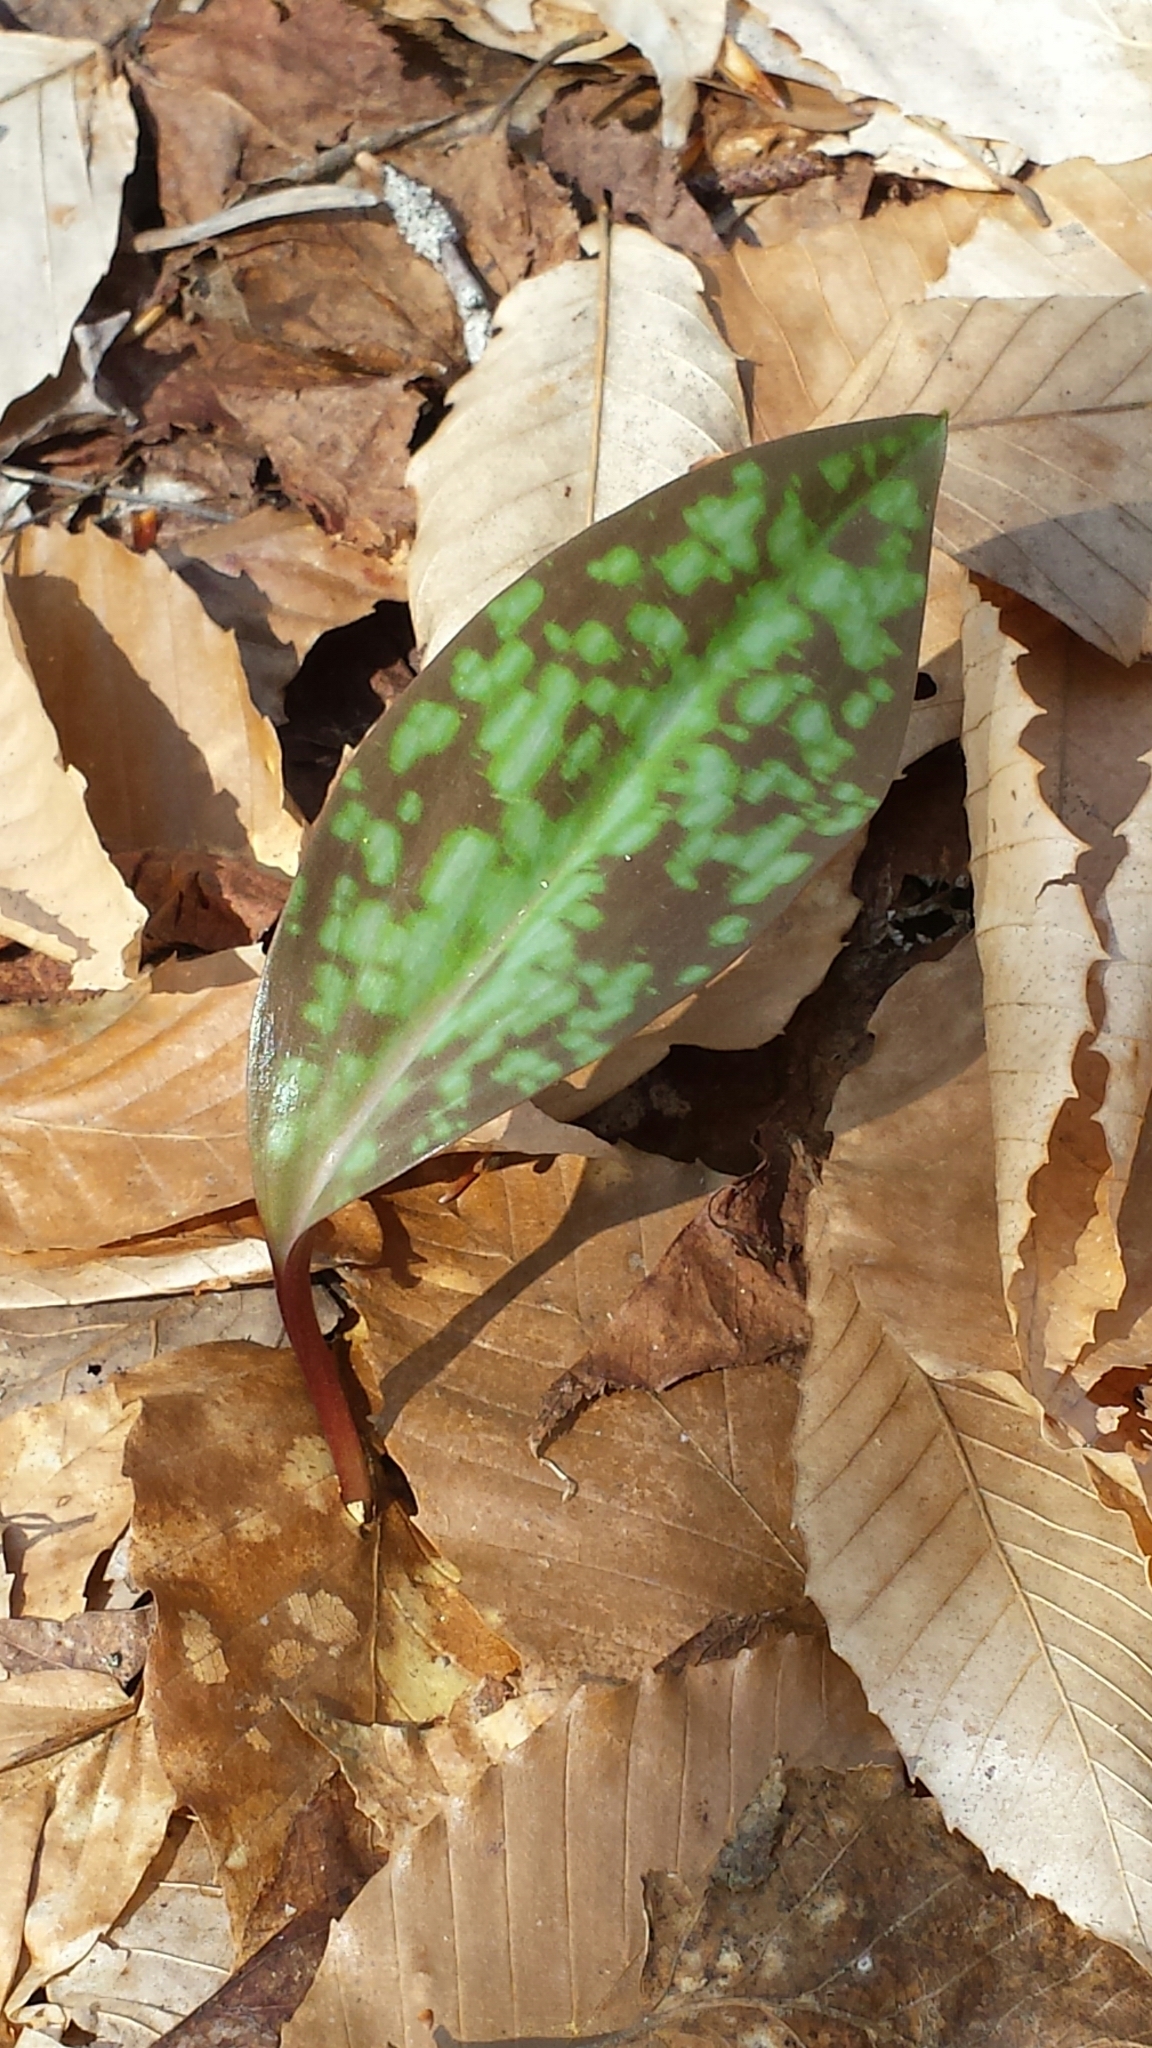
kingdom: Plantae
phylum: Tracheophyta
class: Liliopsida
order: Liliales
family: Liliaceae
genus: Erythronium
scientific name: Erythronium americanum
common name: Yellow adder's-tongue
